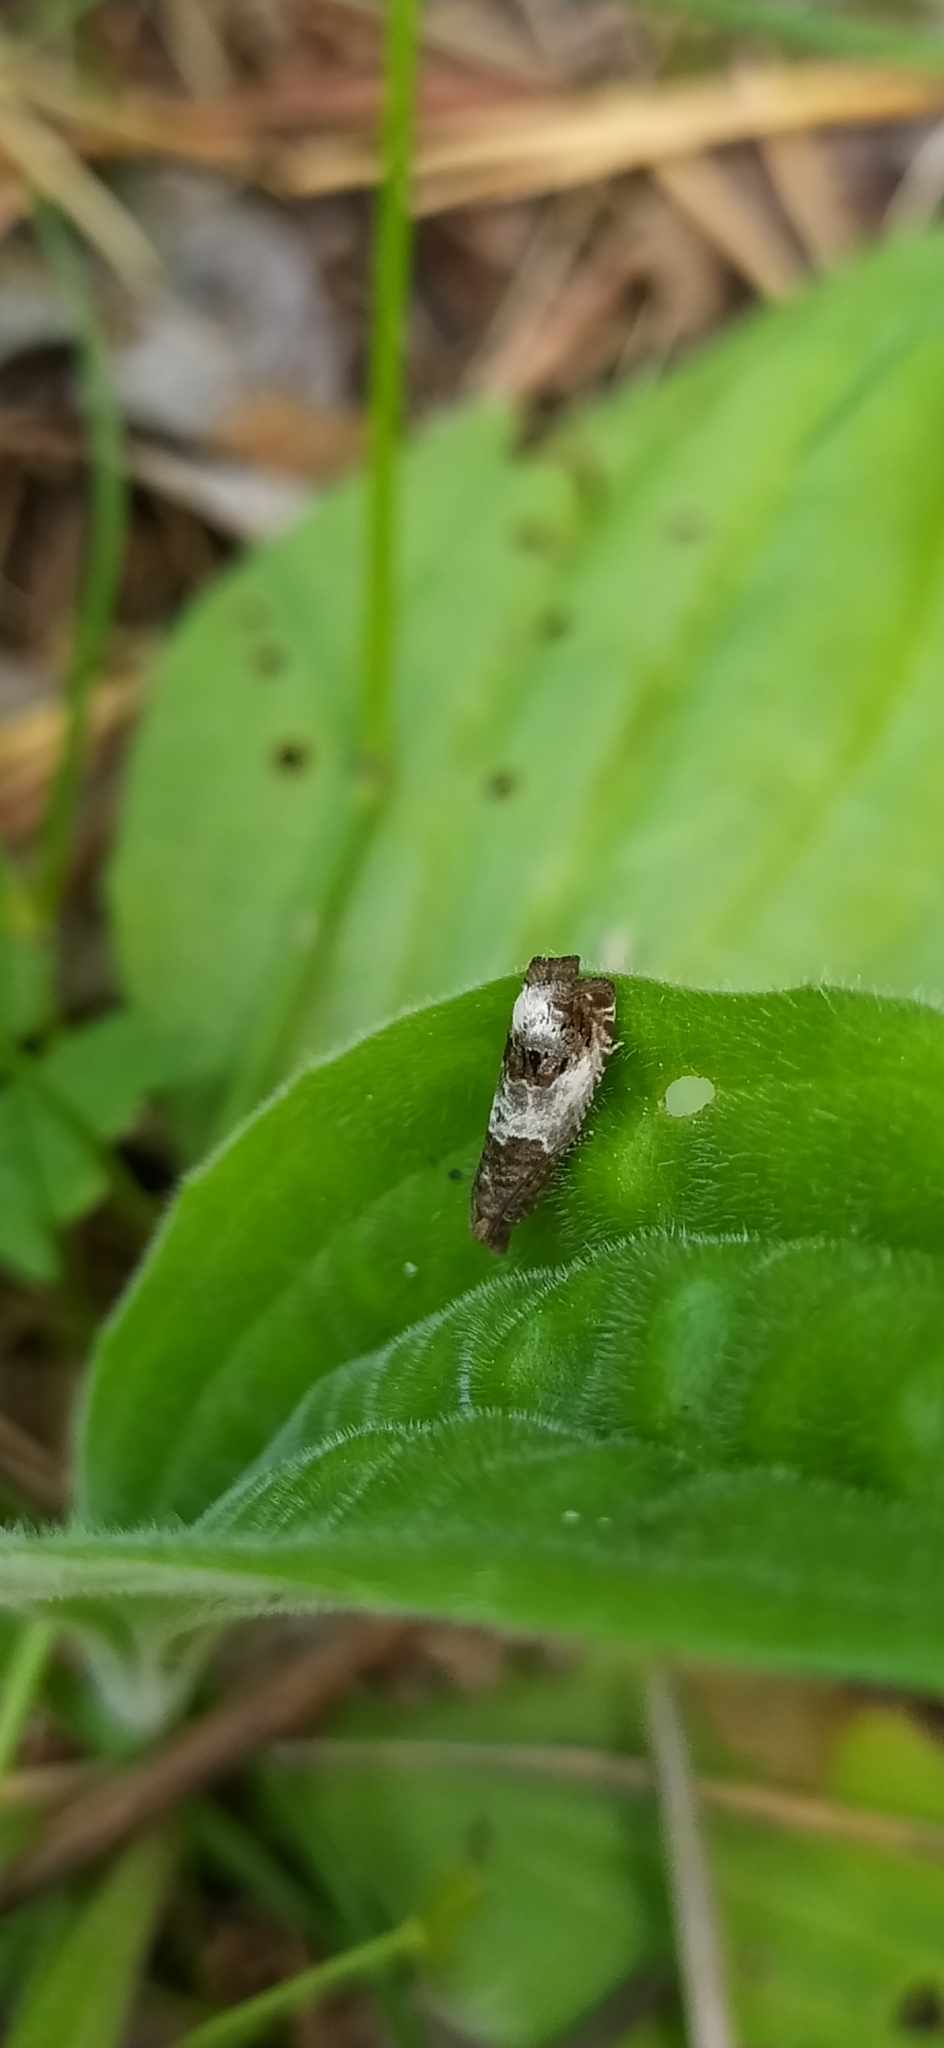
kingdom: Animalia
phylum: Arthropoda
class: Insecta
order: Lepidoptera
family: Tortricidae
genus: Notocelia
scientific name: Notocelia rosaecolana
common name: Common rose bell
